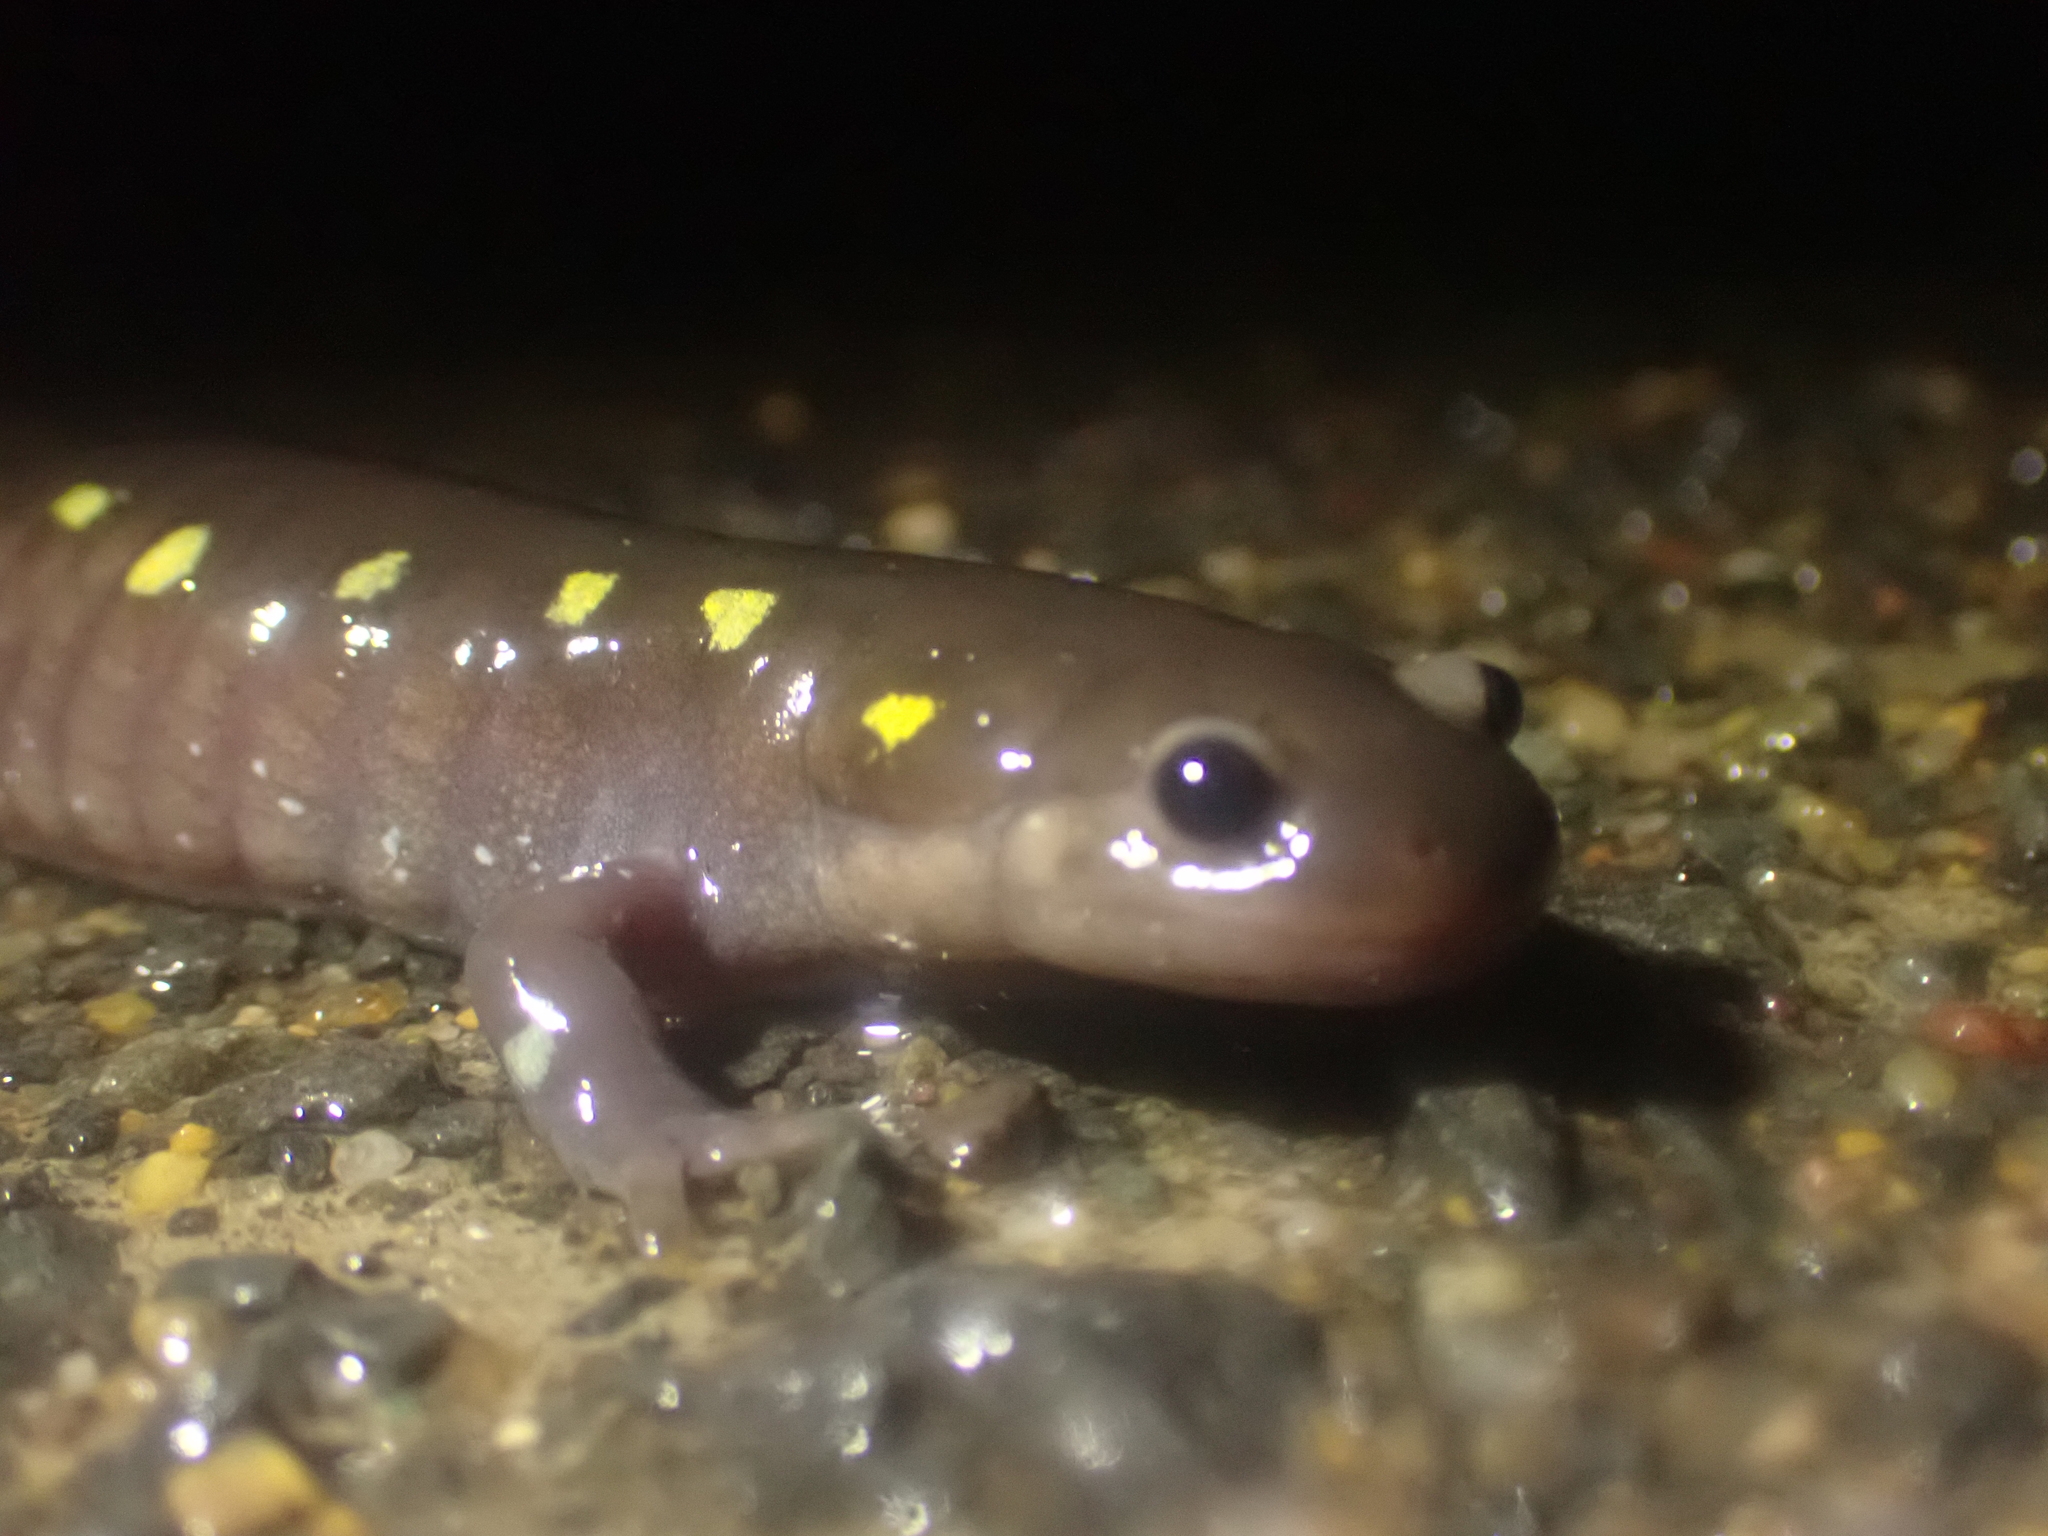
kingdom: Animalia
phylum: Chordata
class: Amphibia
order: Caudata
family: Ambystomatidae
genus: Ambystoma
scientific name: Ambystoma maculatum
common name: Spotted salamander
